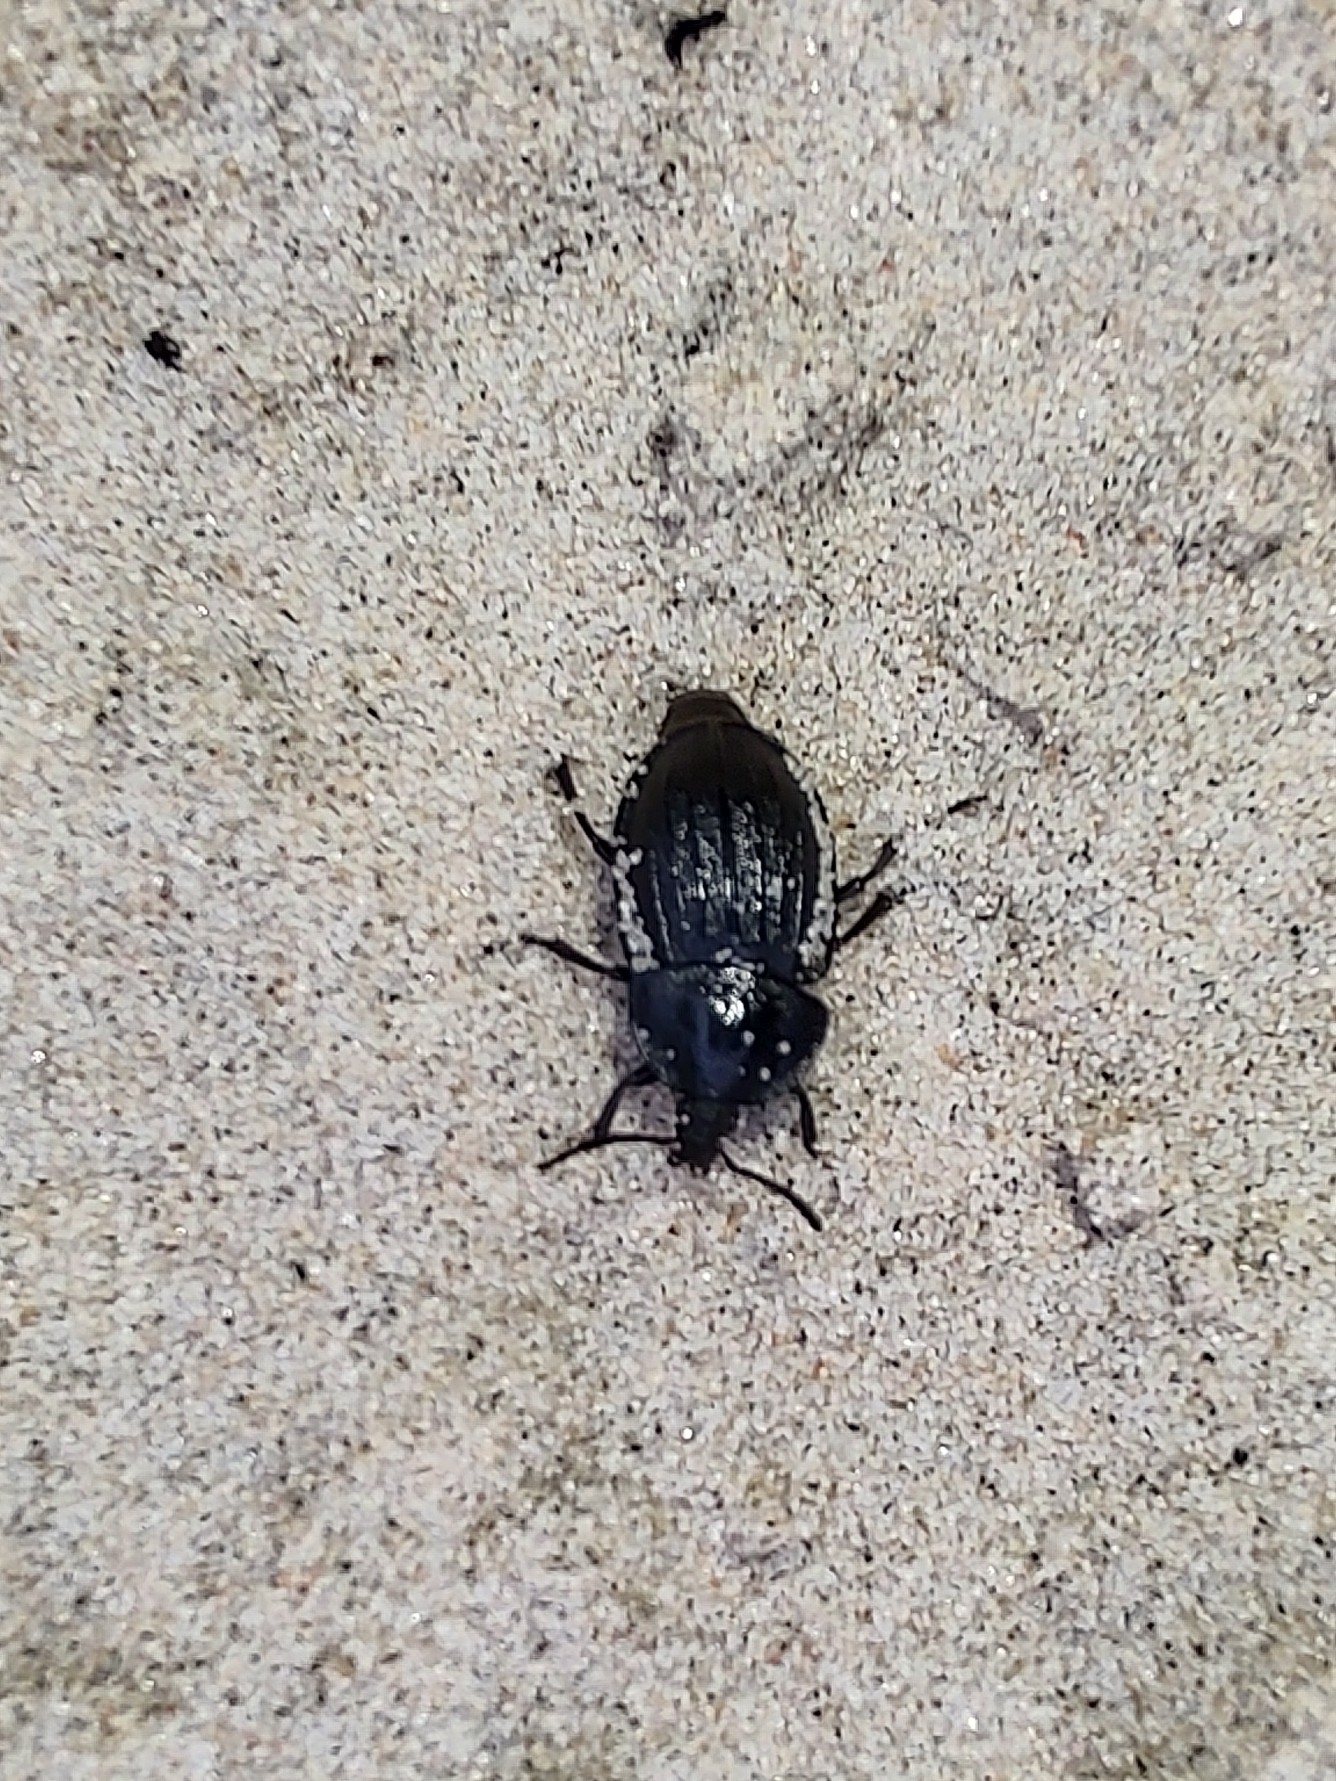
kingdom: Animalia
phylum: Arthropoda
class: Insecta
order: Coleoptera
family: Staphylinidae
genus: Silpha
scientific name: Silpha atrata
